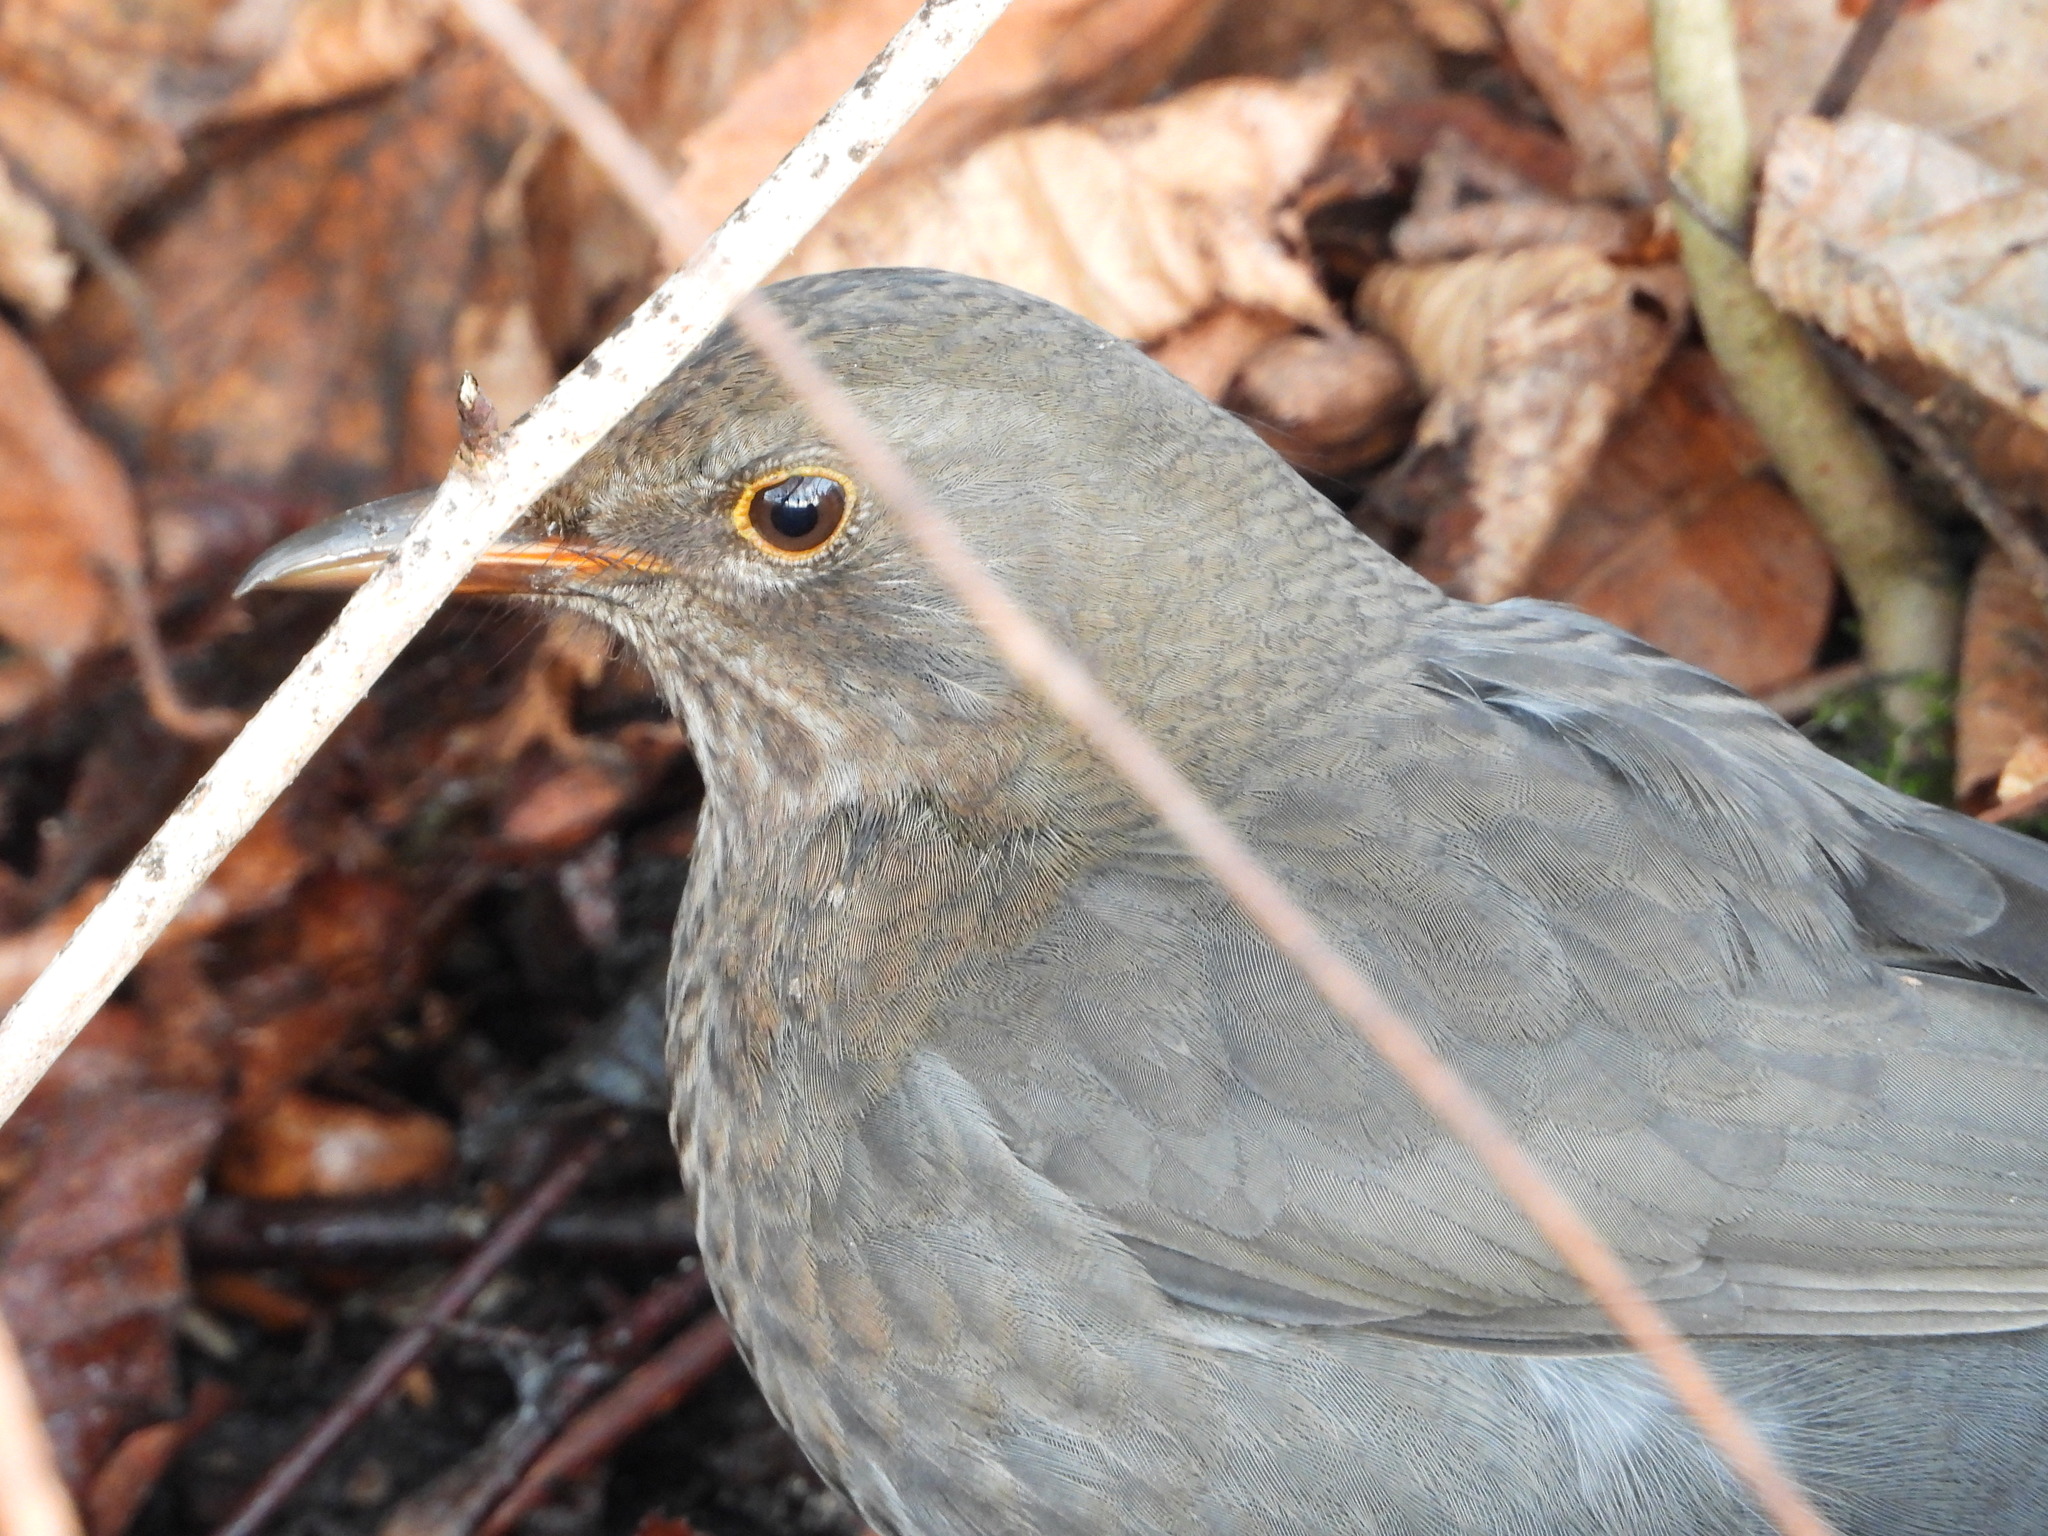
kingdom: Animalia
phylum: Chordata
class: Aves
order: Passeriformes
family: Turdidae
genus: Turdus
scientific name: Turdus merula
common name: Common blackbird
